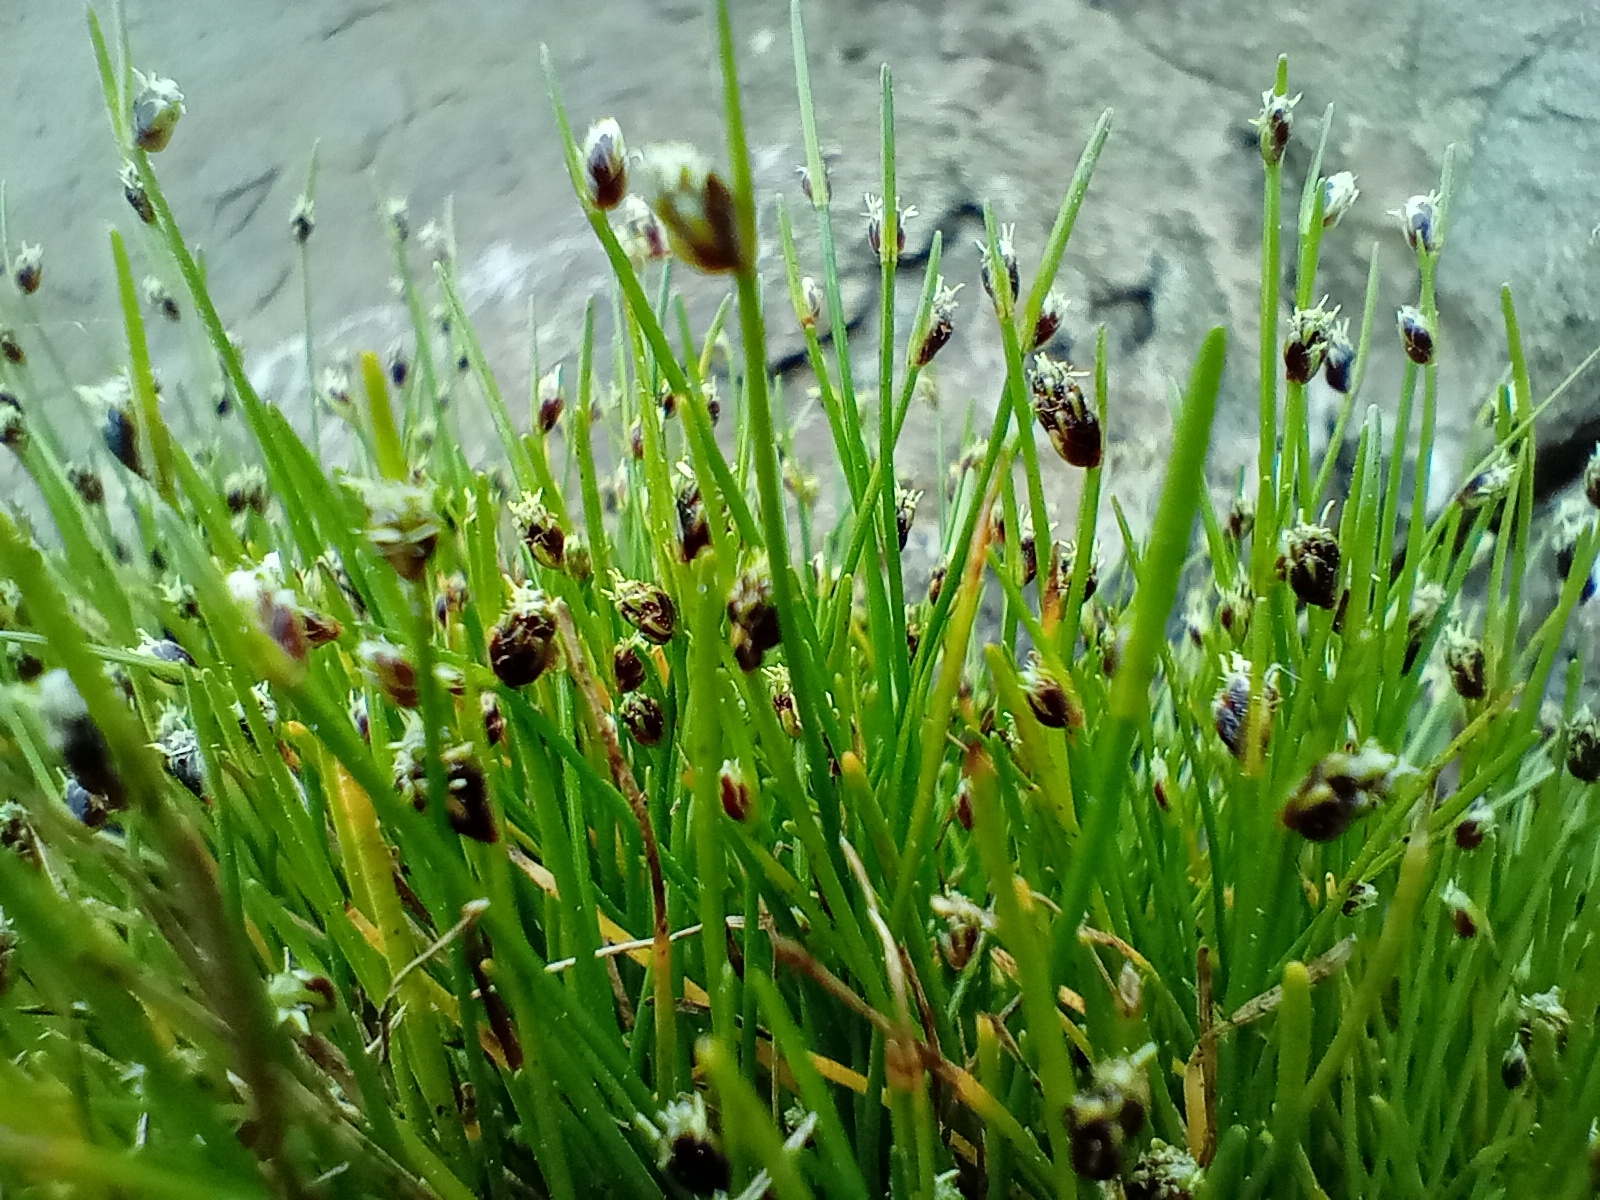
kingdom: Plantae
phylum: Tracheophyta
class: Liliopsida
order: Poales
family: Cyperaceae
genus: Isolepis
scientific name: Isolepis cernua
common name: Slender club-rush
